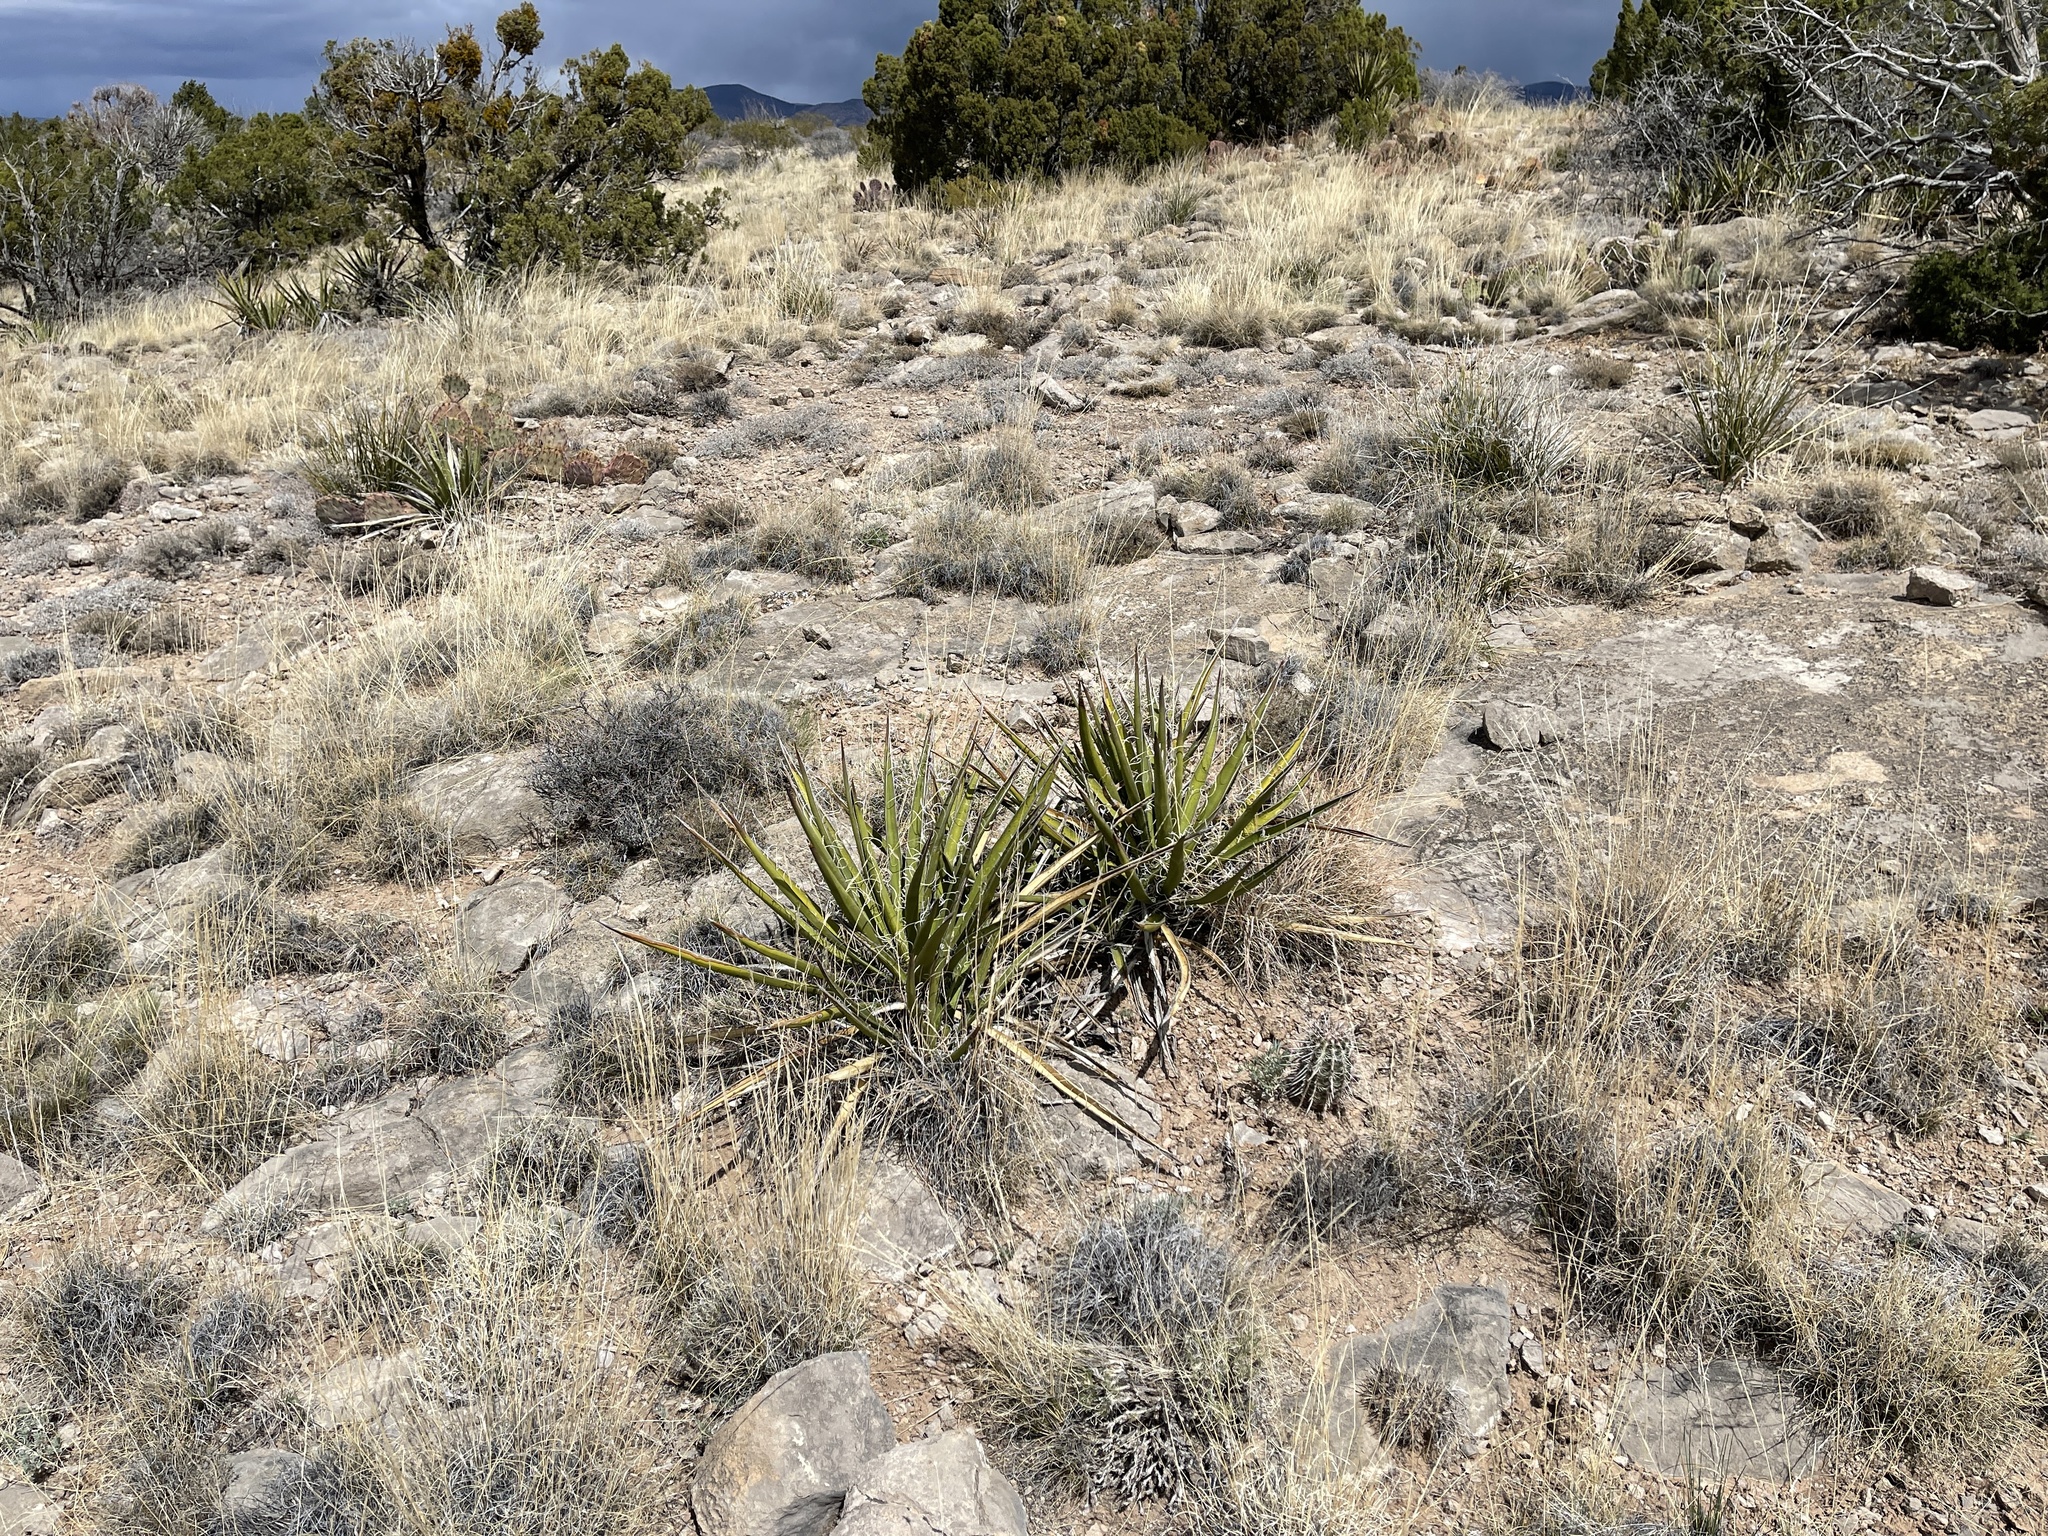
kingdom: Plantae
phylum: Tracheophyta
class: Liliopsida
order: Asparagales
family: Asparagaceae
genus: Yucca
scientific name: Yucca baccata
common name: Banana yucca
